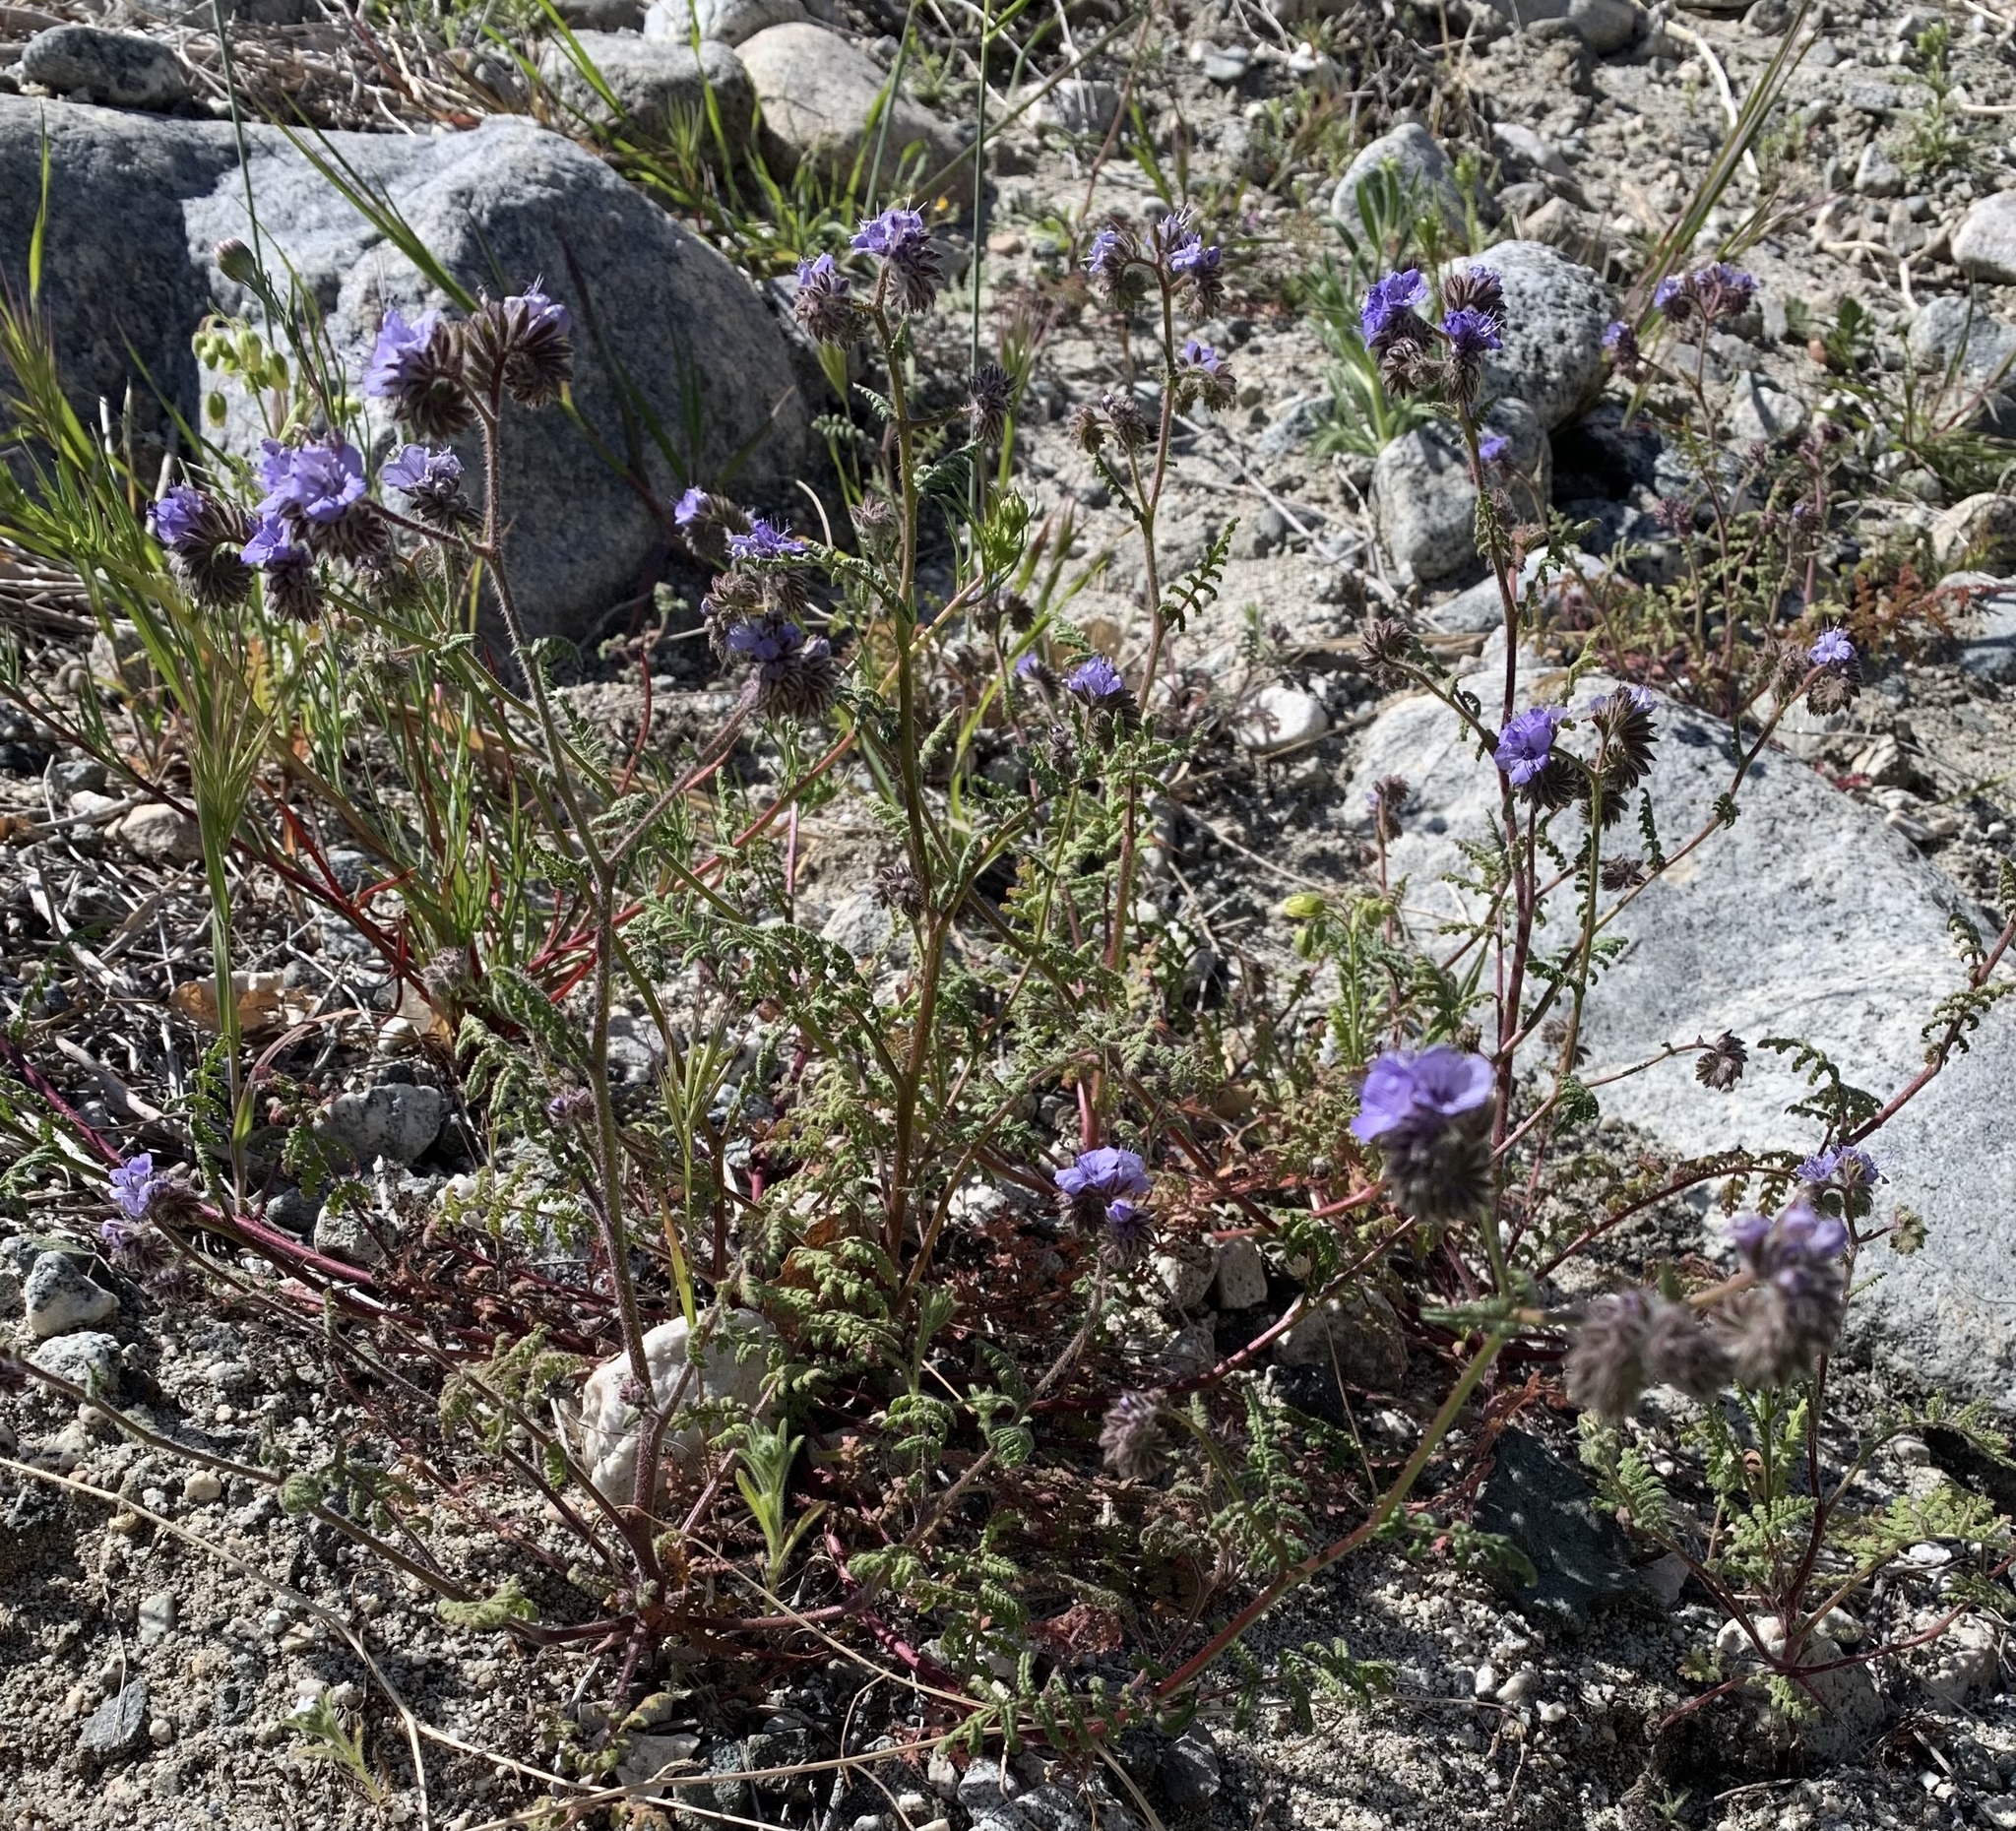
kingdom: Plantae
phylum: Tracheophyta
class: Magnoliopsida
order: Boraginales
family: Hydrophyllaceae
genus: Phacelia
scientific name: Phacelia distans
